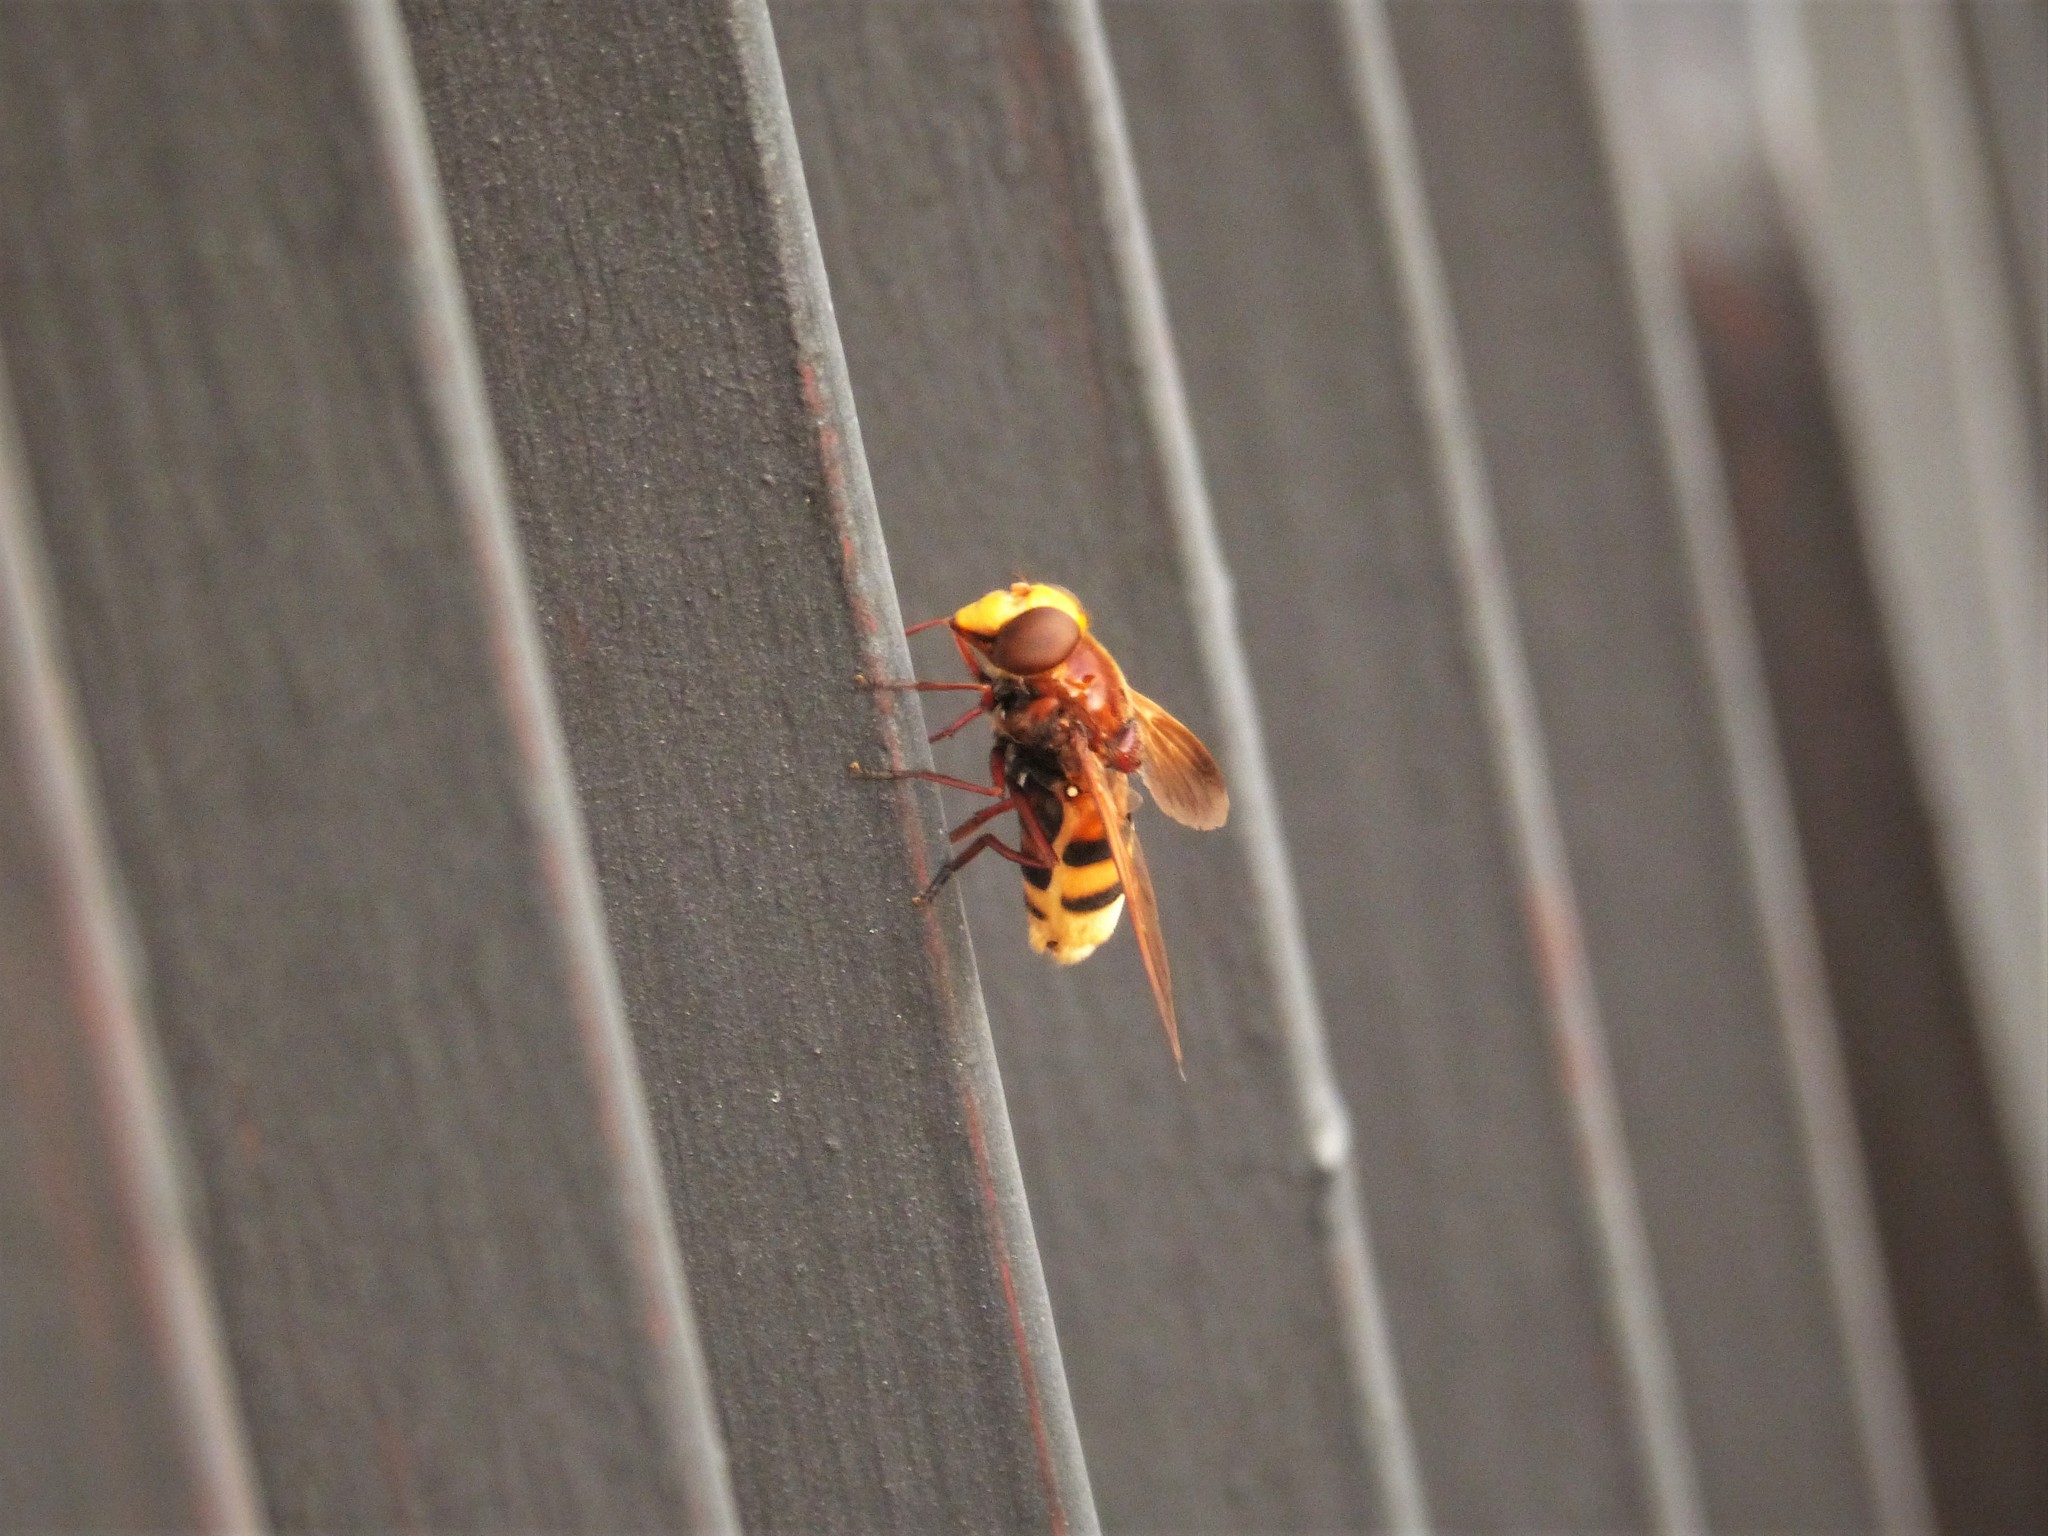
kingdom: Animalia
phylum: Arthropoda
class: Insecta
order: Diptera
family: Syrphidae
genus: Volucella
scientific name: Volucella zonaria
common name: Hornet hoverfly
